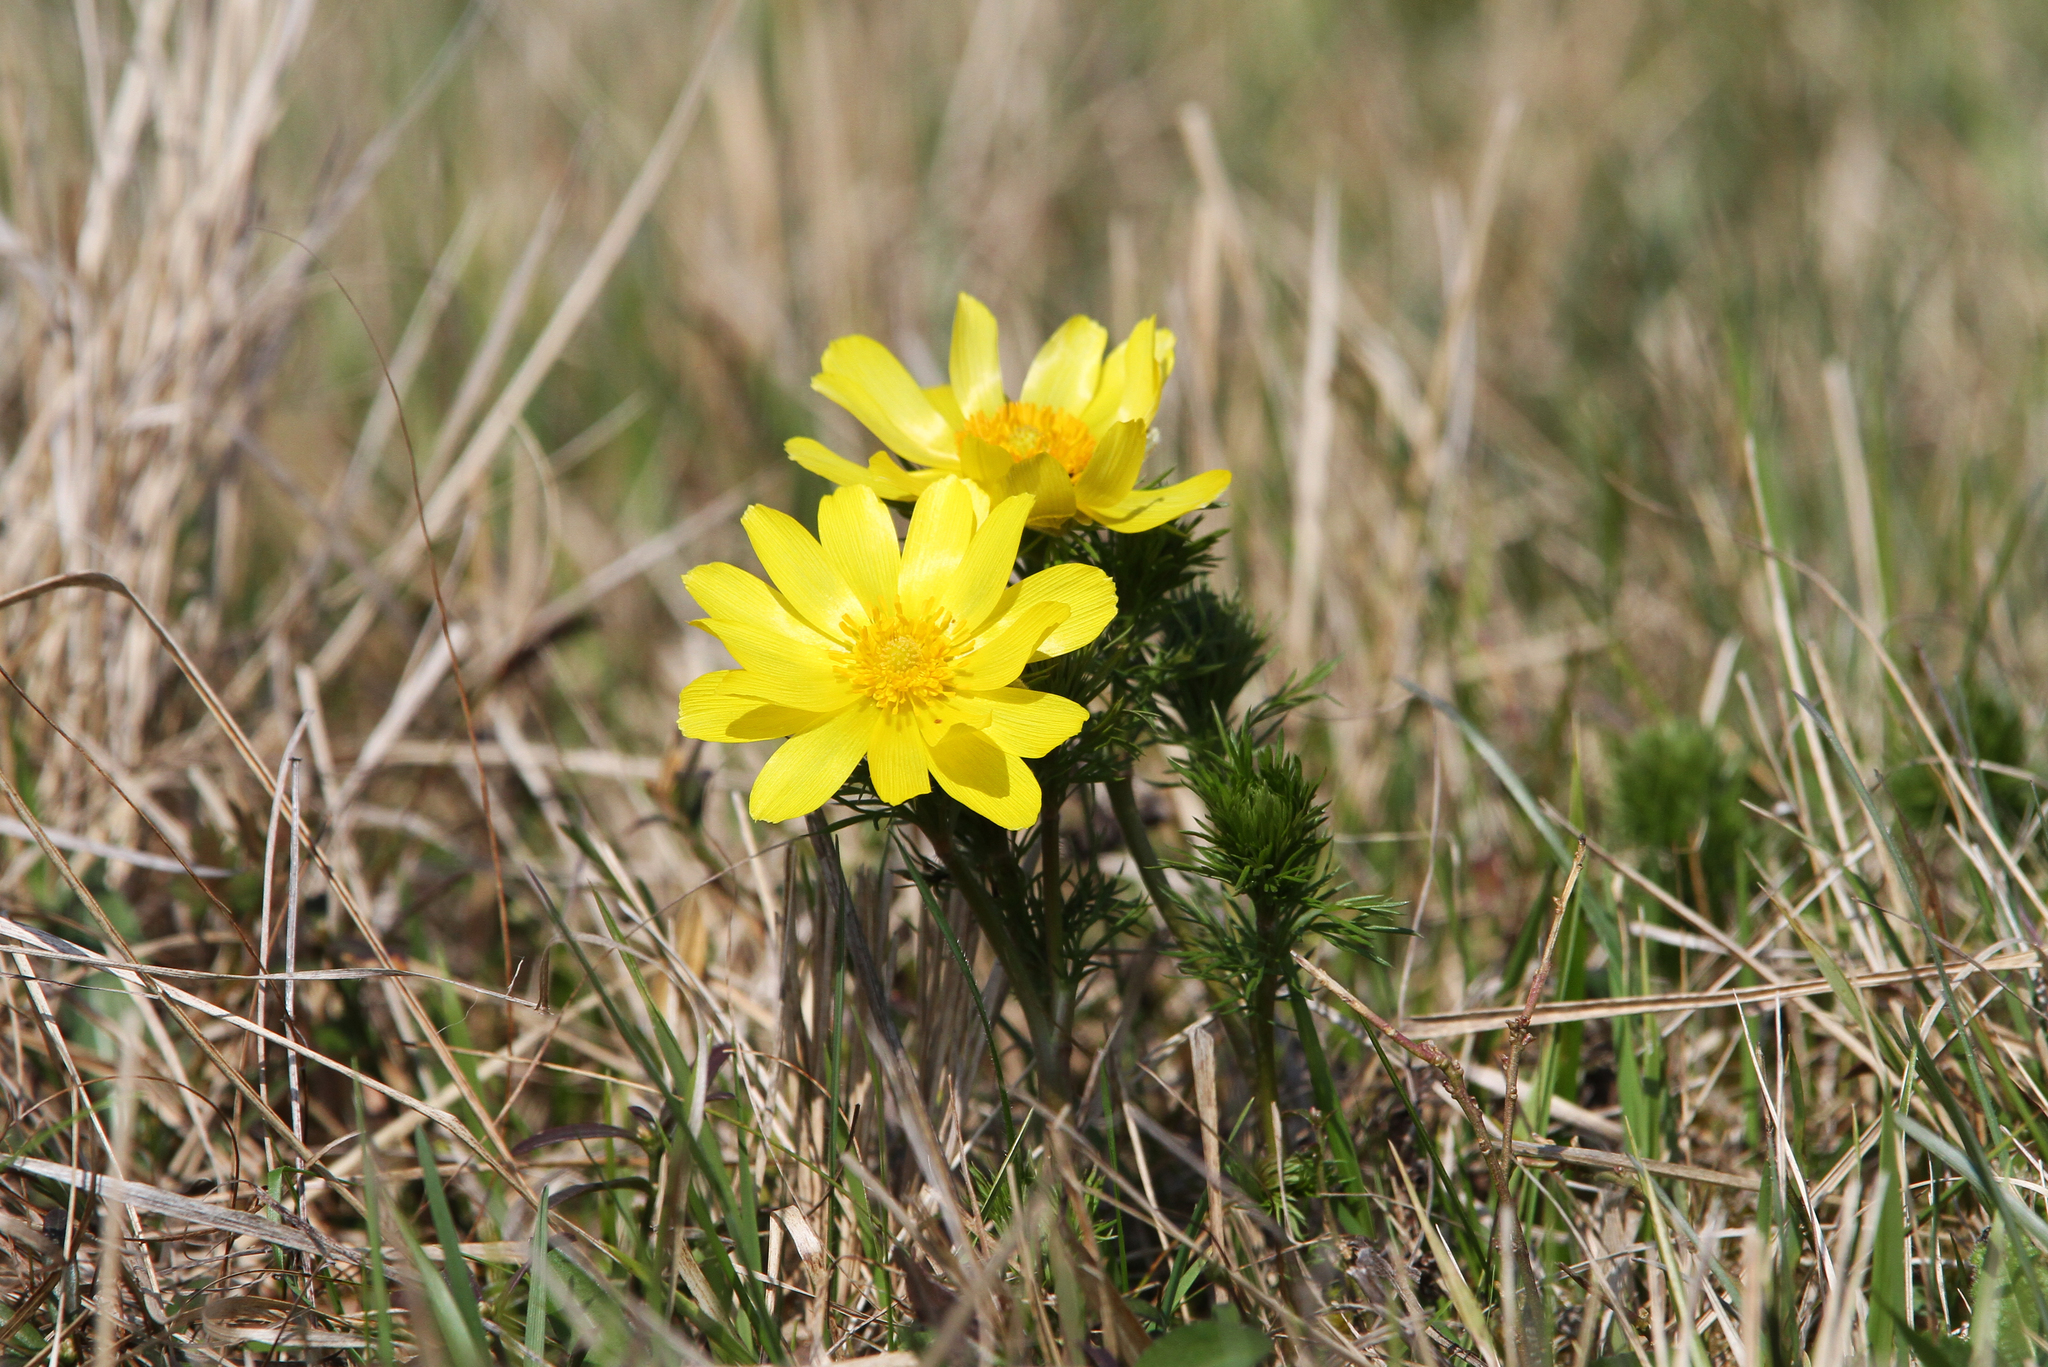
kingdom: Plantae
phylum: Tracheophyta
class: Magnoliopsida
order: Ranunculales
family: Ranunculaceae
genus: Adonis
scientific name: Adonis vernalis
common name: Yellow pheasants-eye
